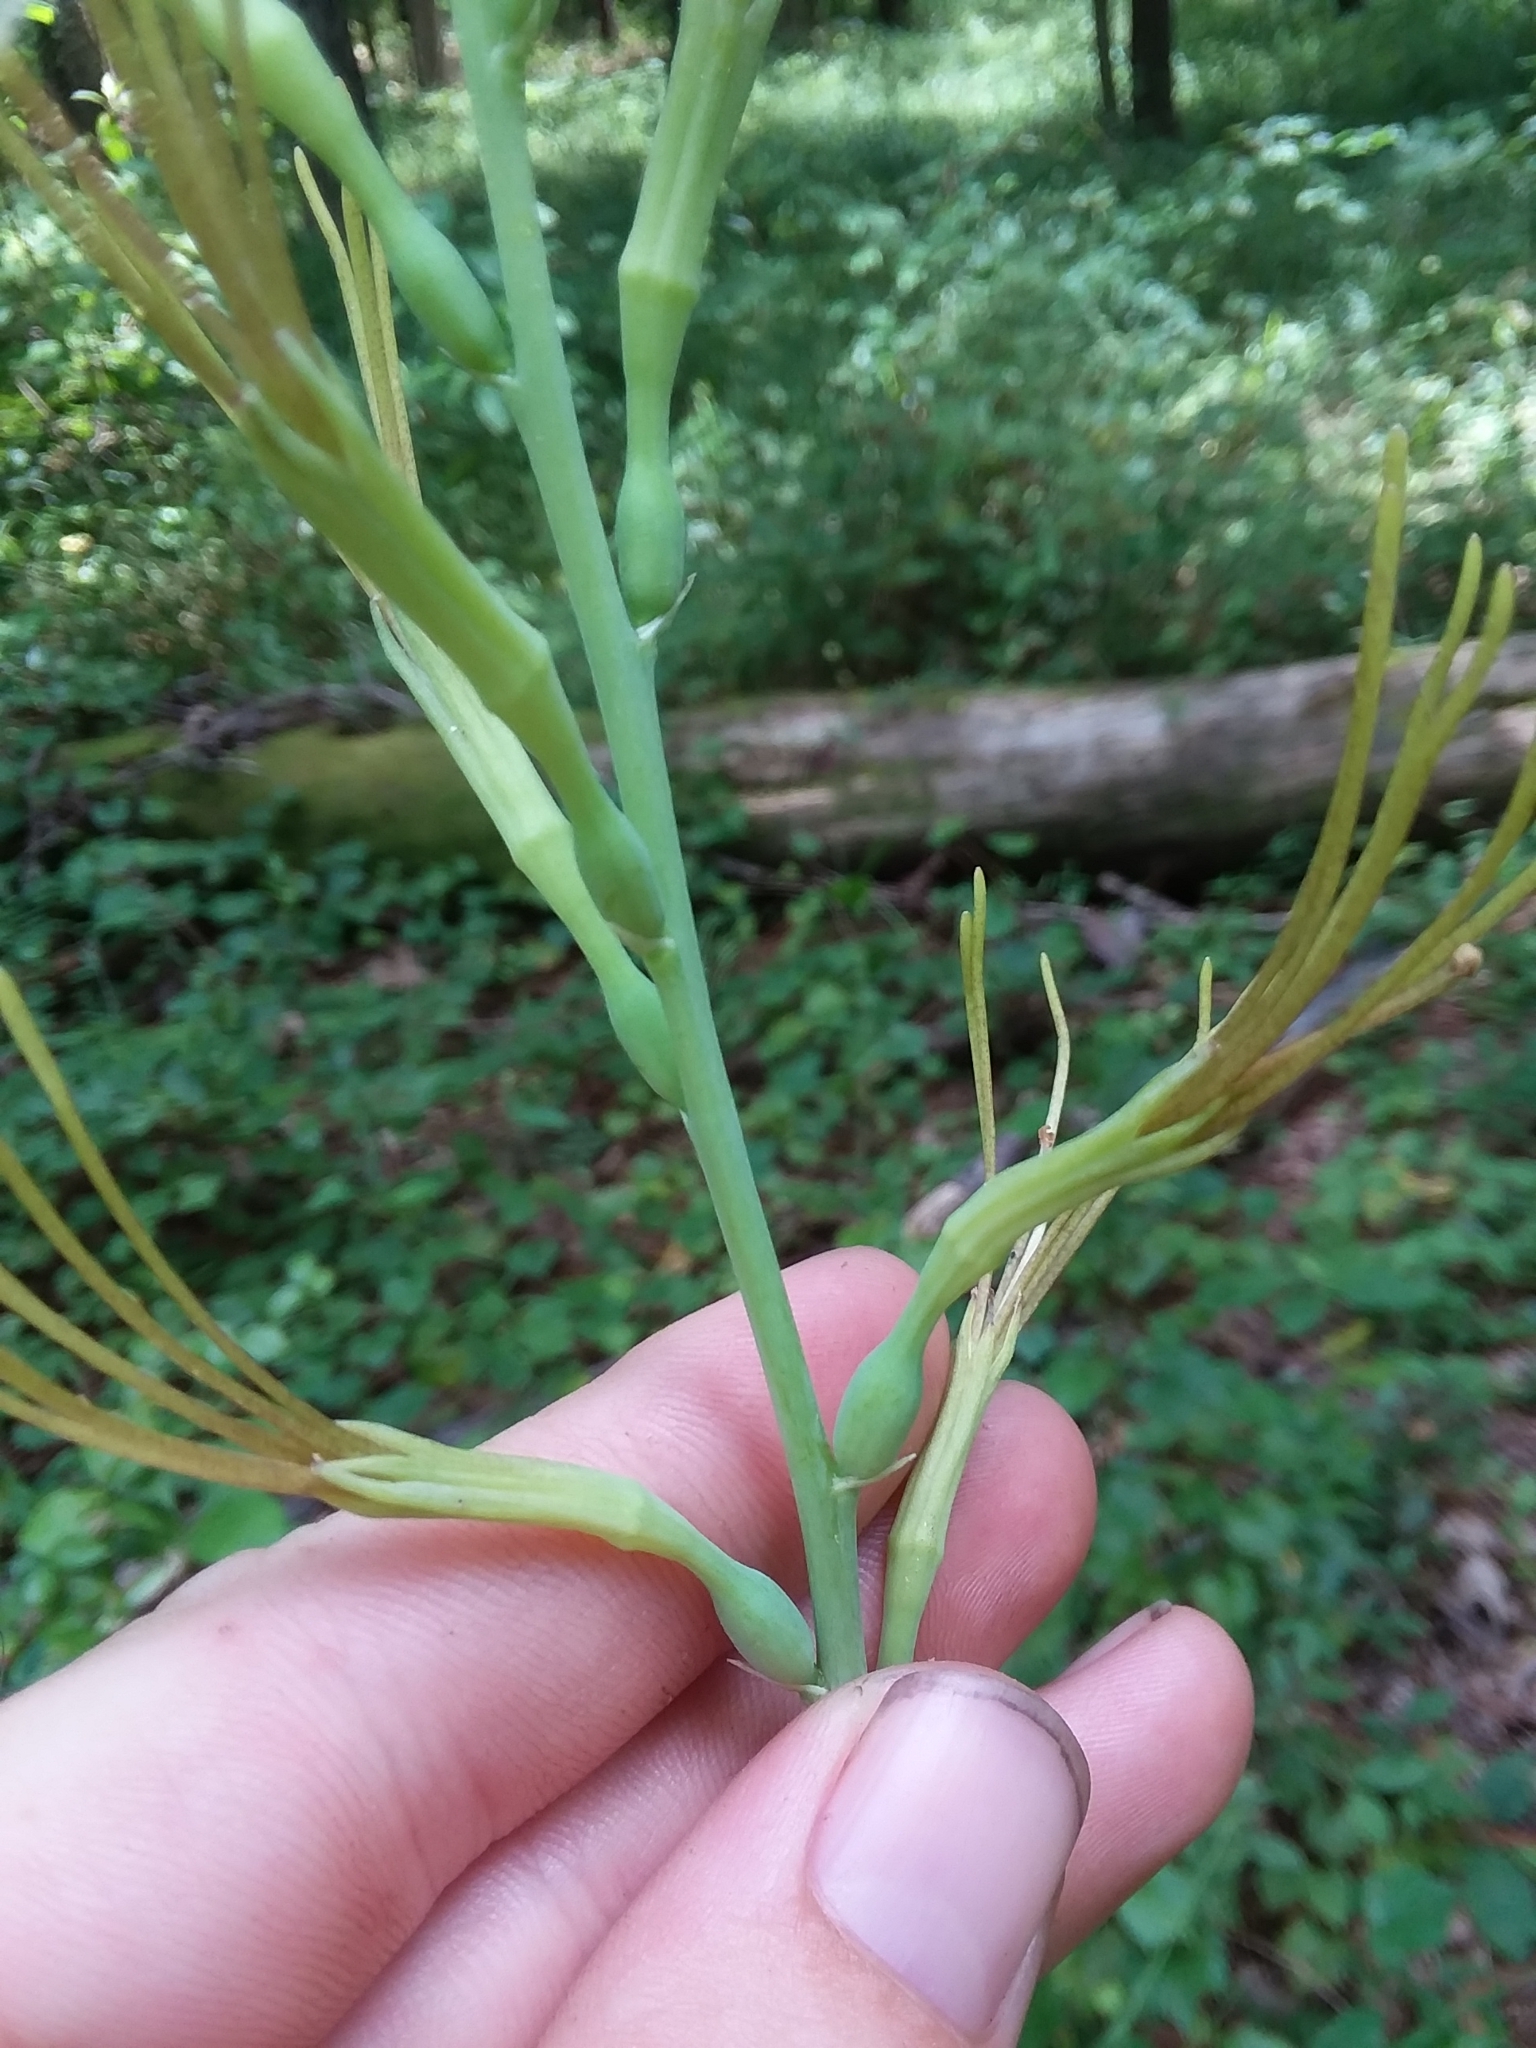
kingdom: Plantae
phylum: Tracheophyta
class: Liliopsida
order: Asparagales
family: Asparagaceae
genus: Agave
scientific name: Agave virginica
